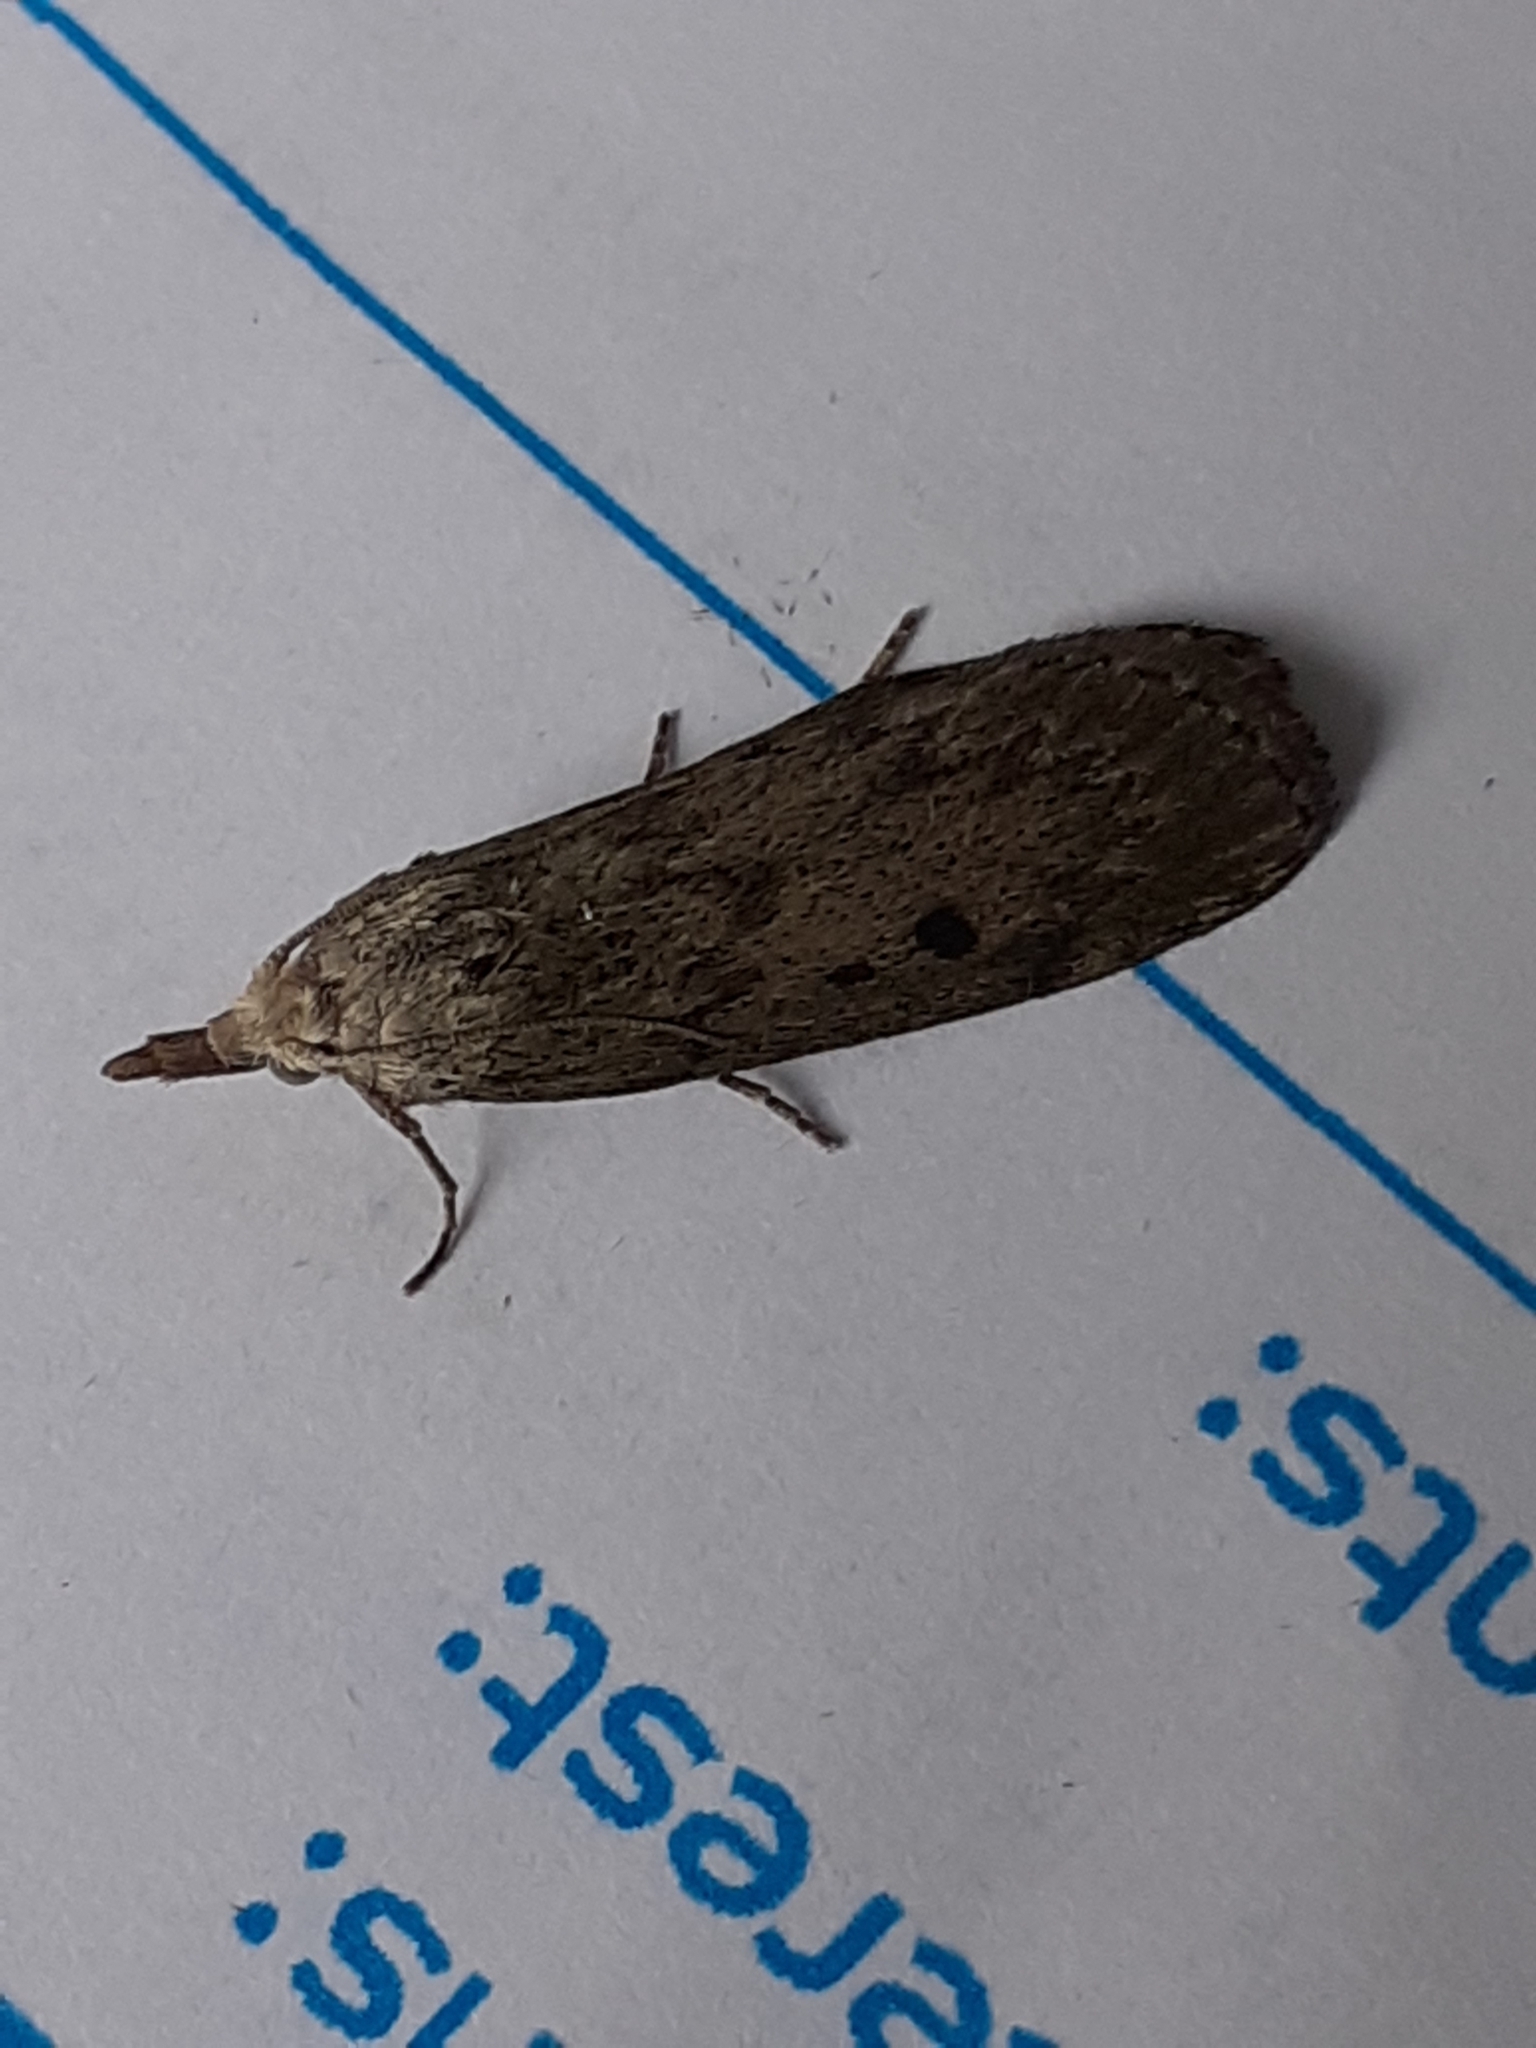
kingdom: Animalia
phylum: Arthropoda
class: Insecta
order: Lepidoptera
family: Pyralidae
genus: Aphomia
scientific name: Aphomia sociella
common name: Bee moth
